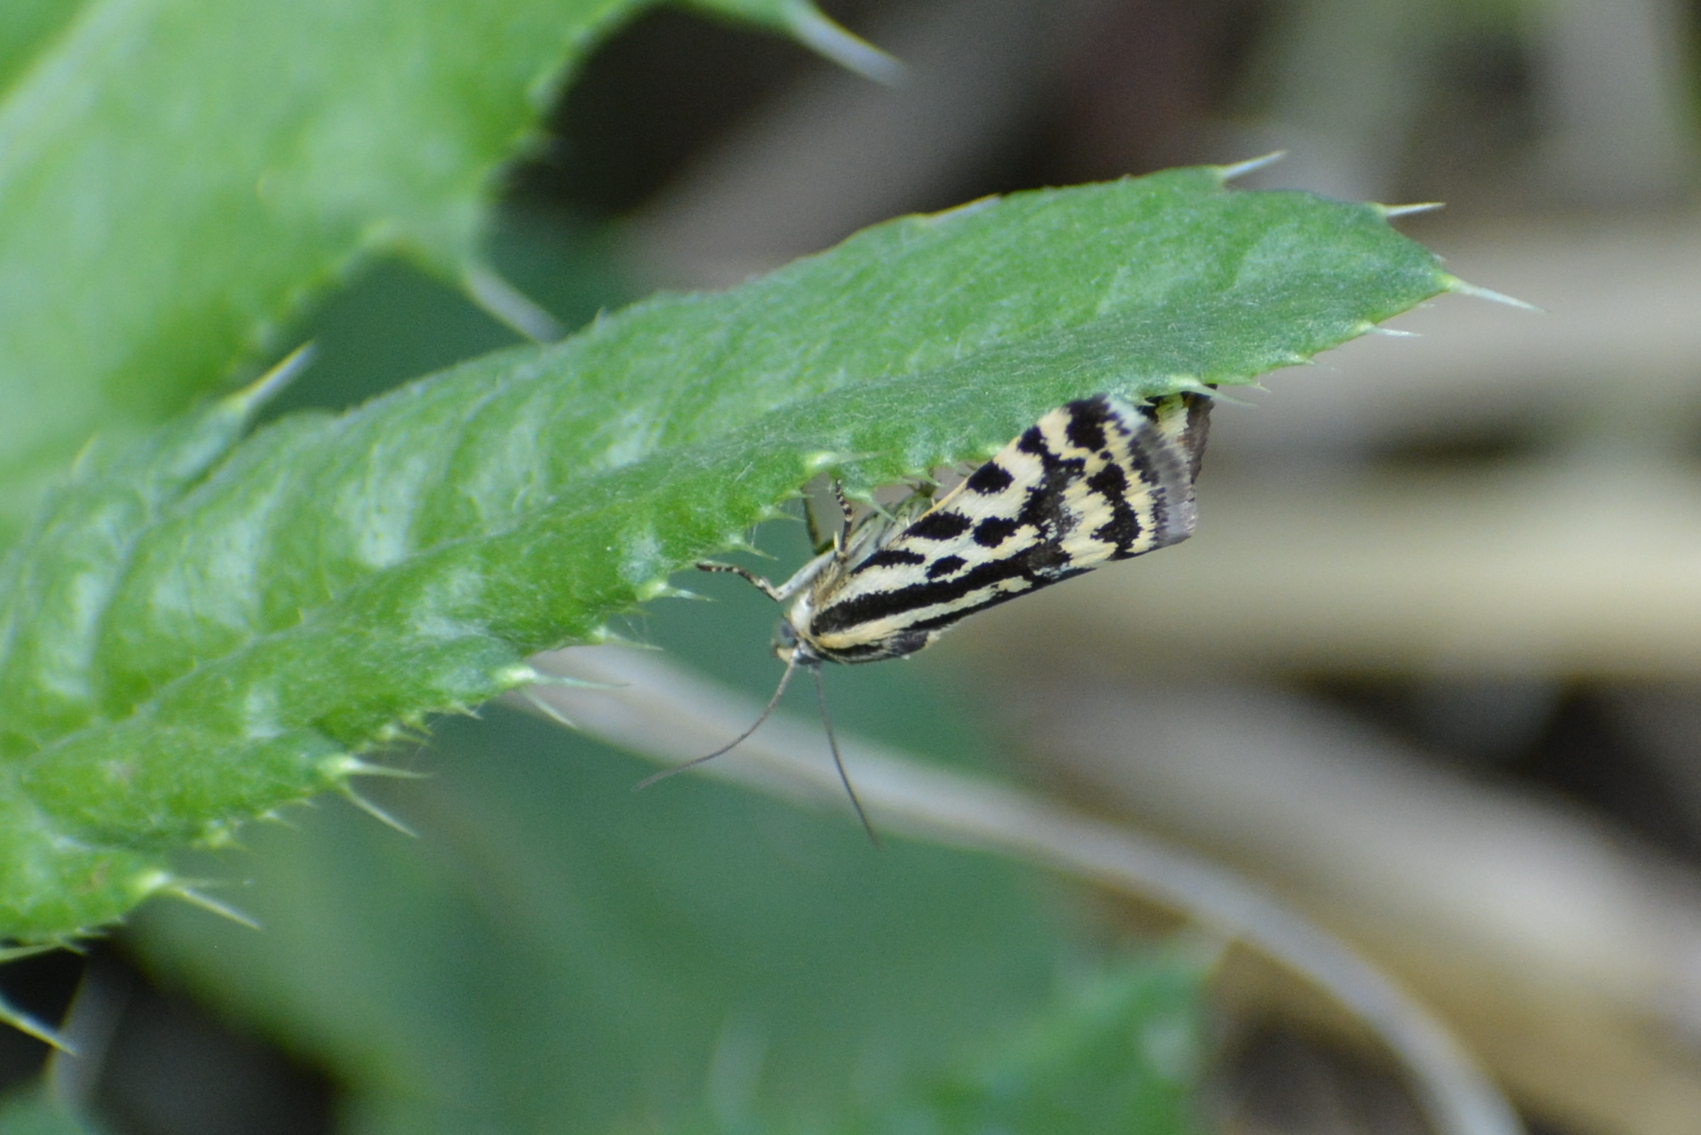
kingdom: Animalia
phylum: Arthropoda
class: Insecta
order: Lepidoptera
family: Noctuidae
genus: Acontia
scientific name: Acontia trabealis
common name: Spotted sulphur
